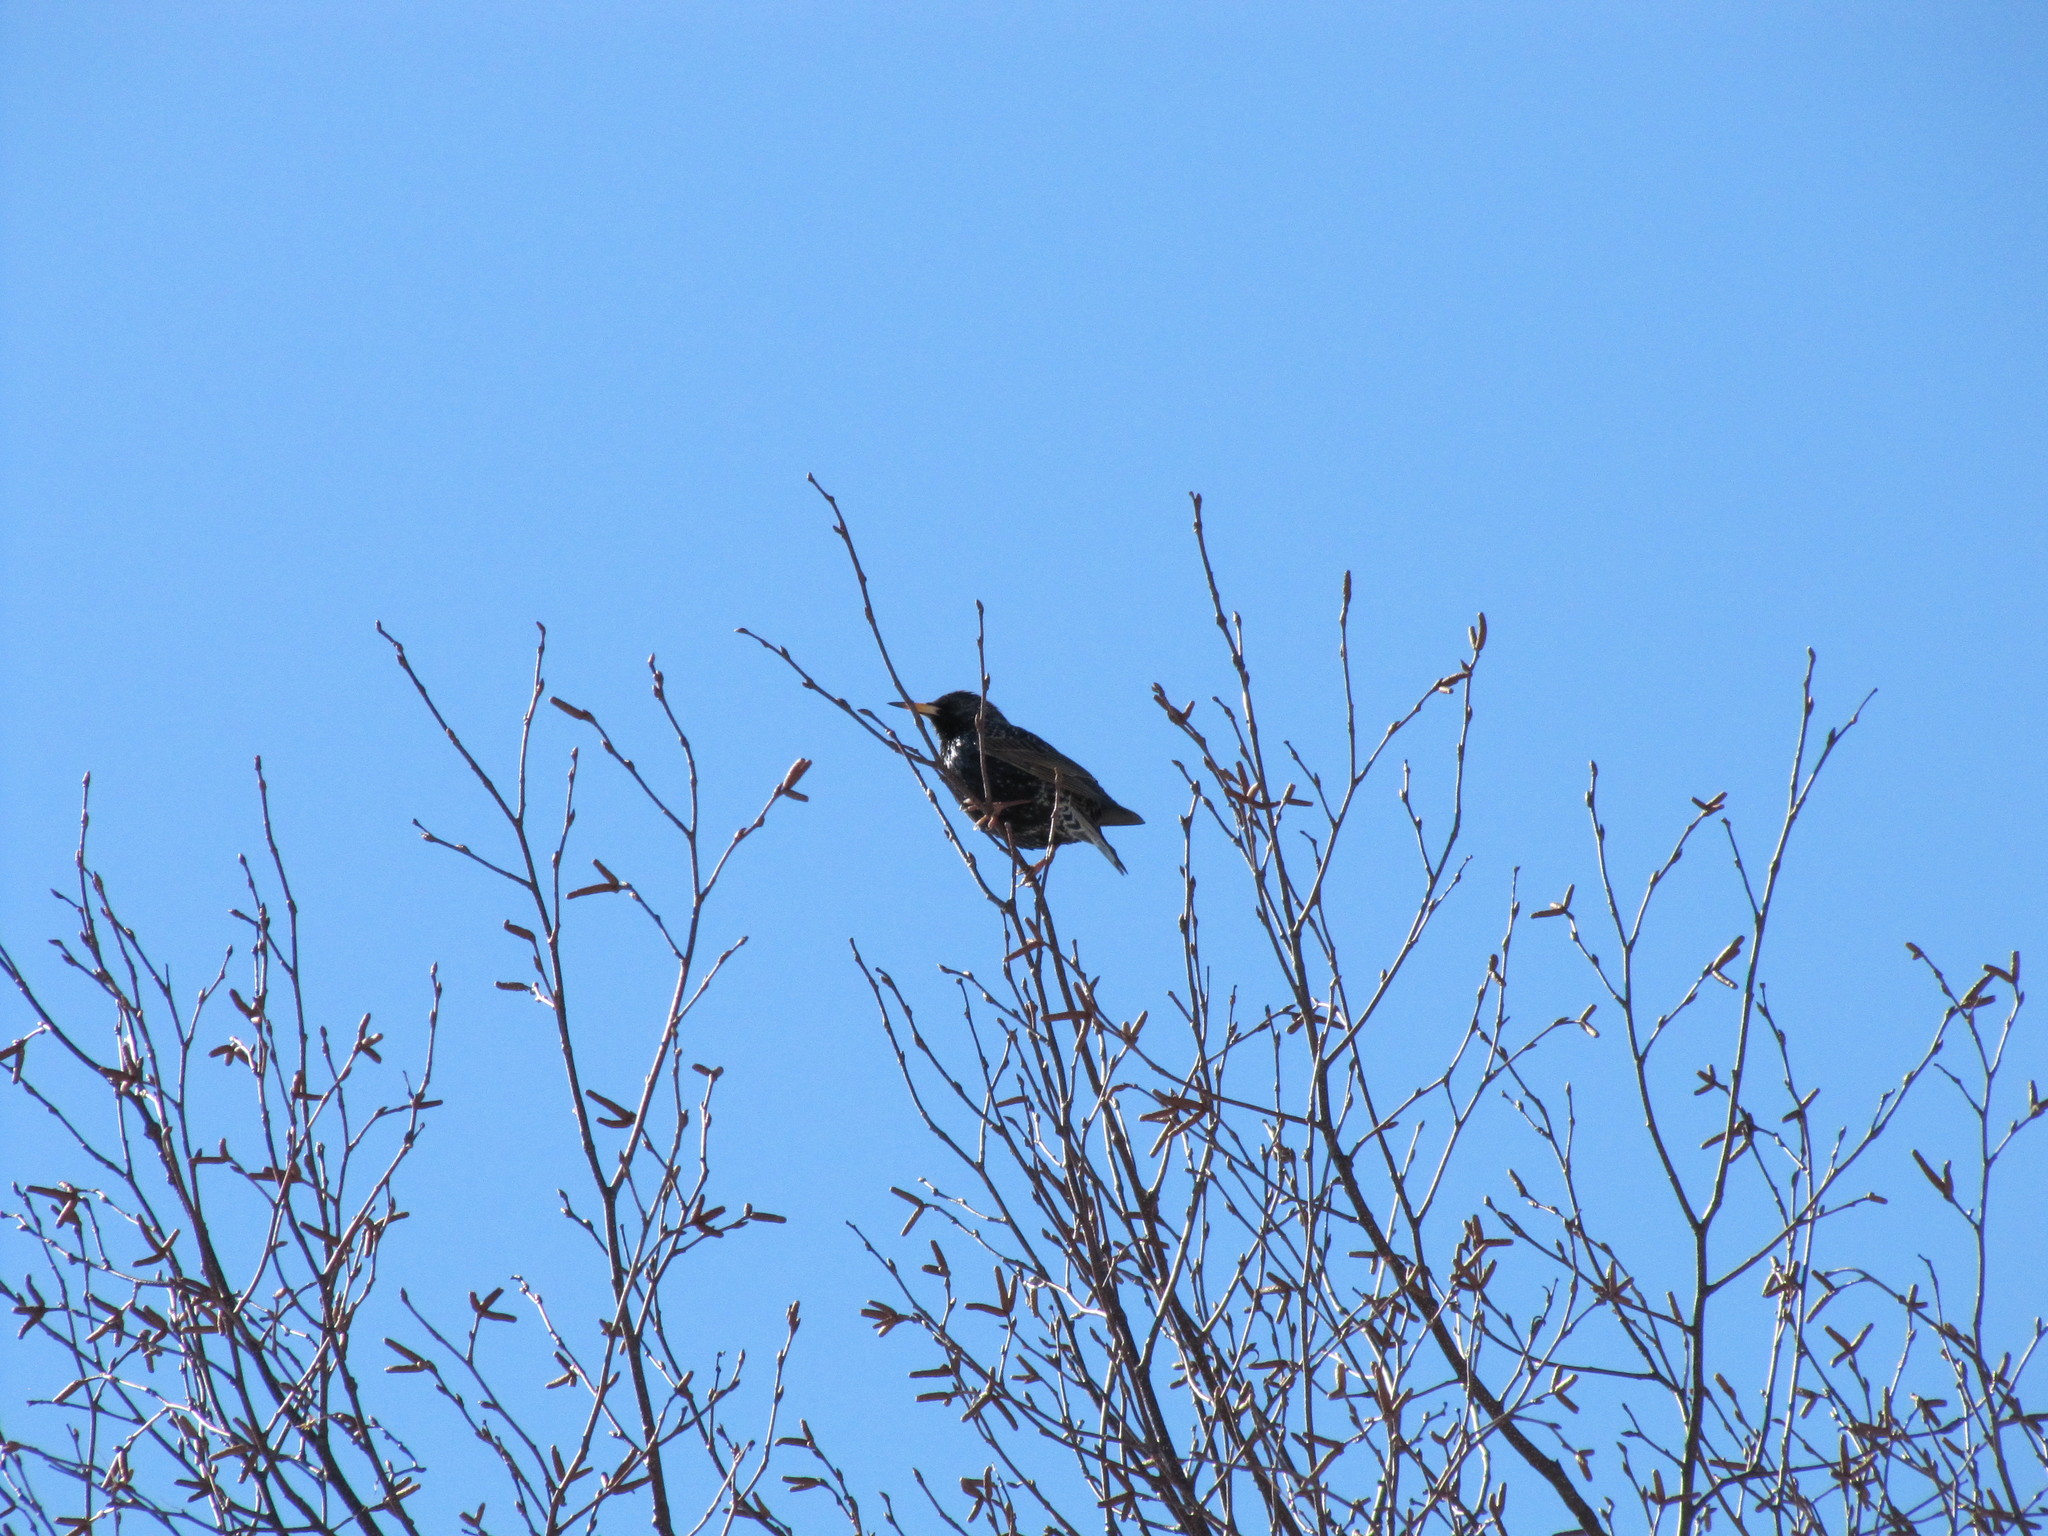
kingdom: Animalia
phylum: Chordata
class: Aves
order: Passeriformes
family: Sturnidae
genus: Sturnus
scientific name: Sturnus vulgaris
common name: Common starling
